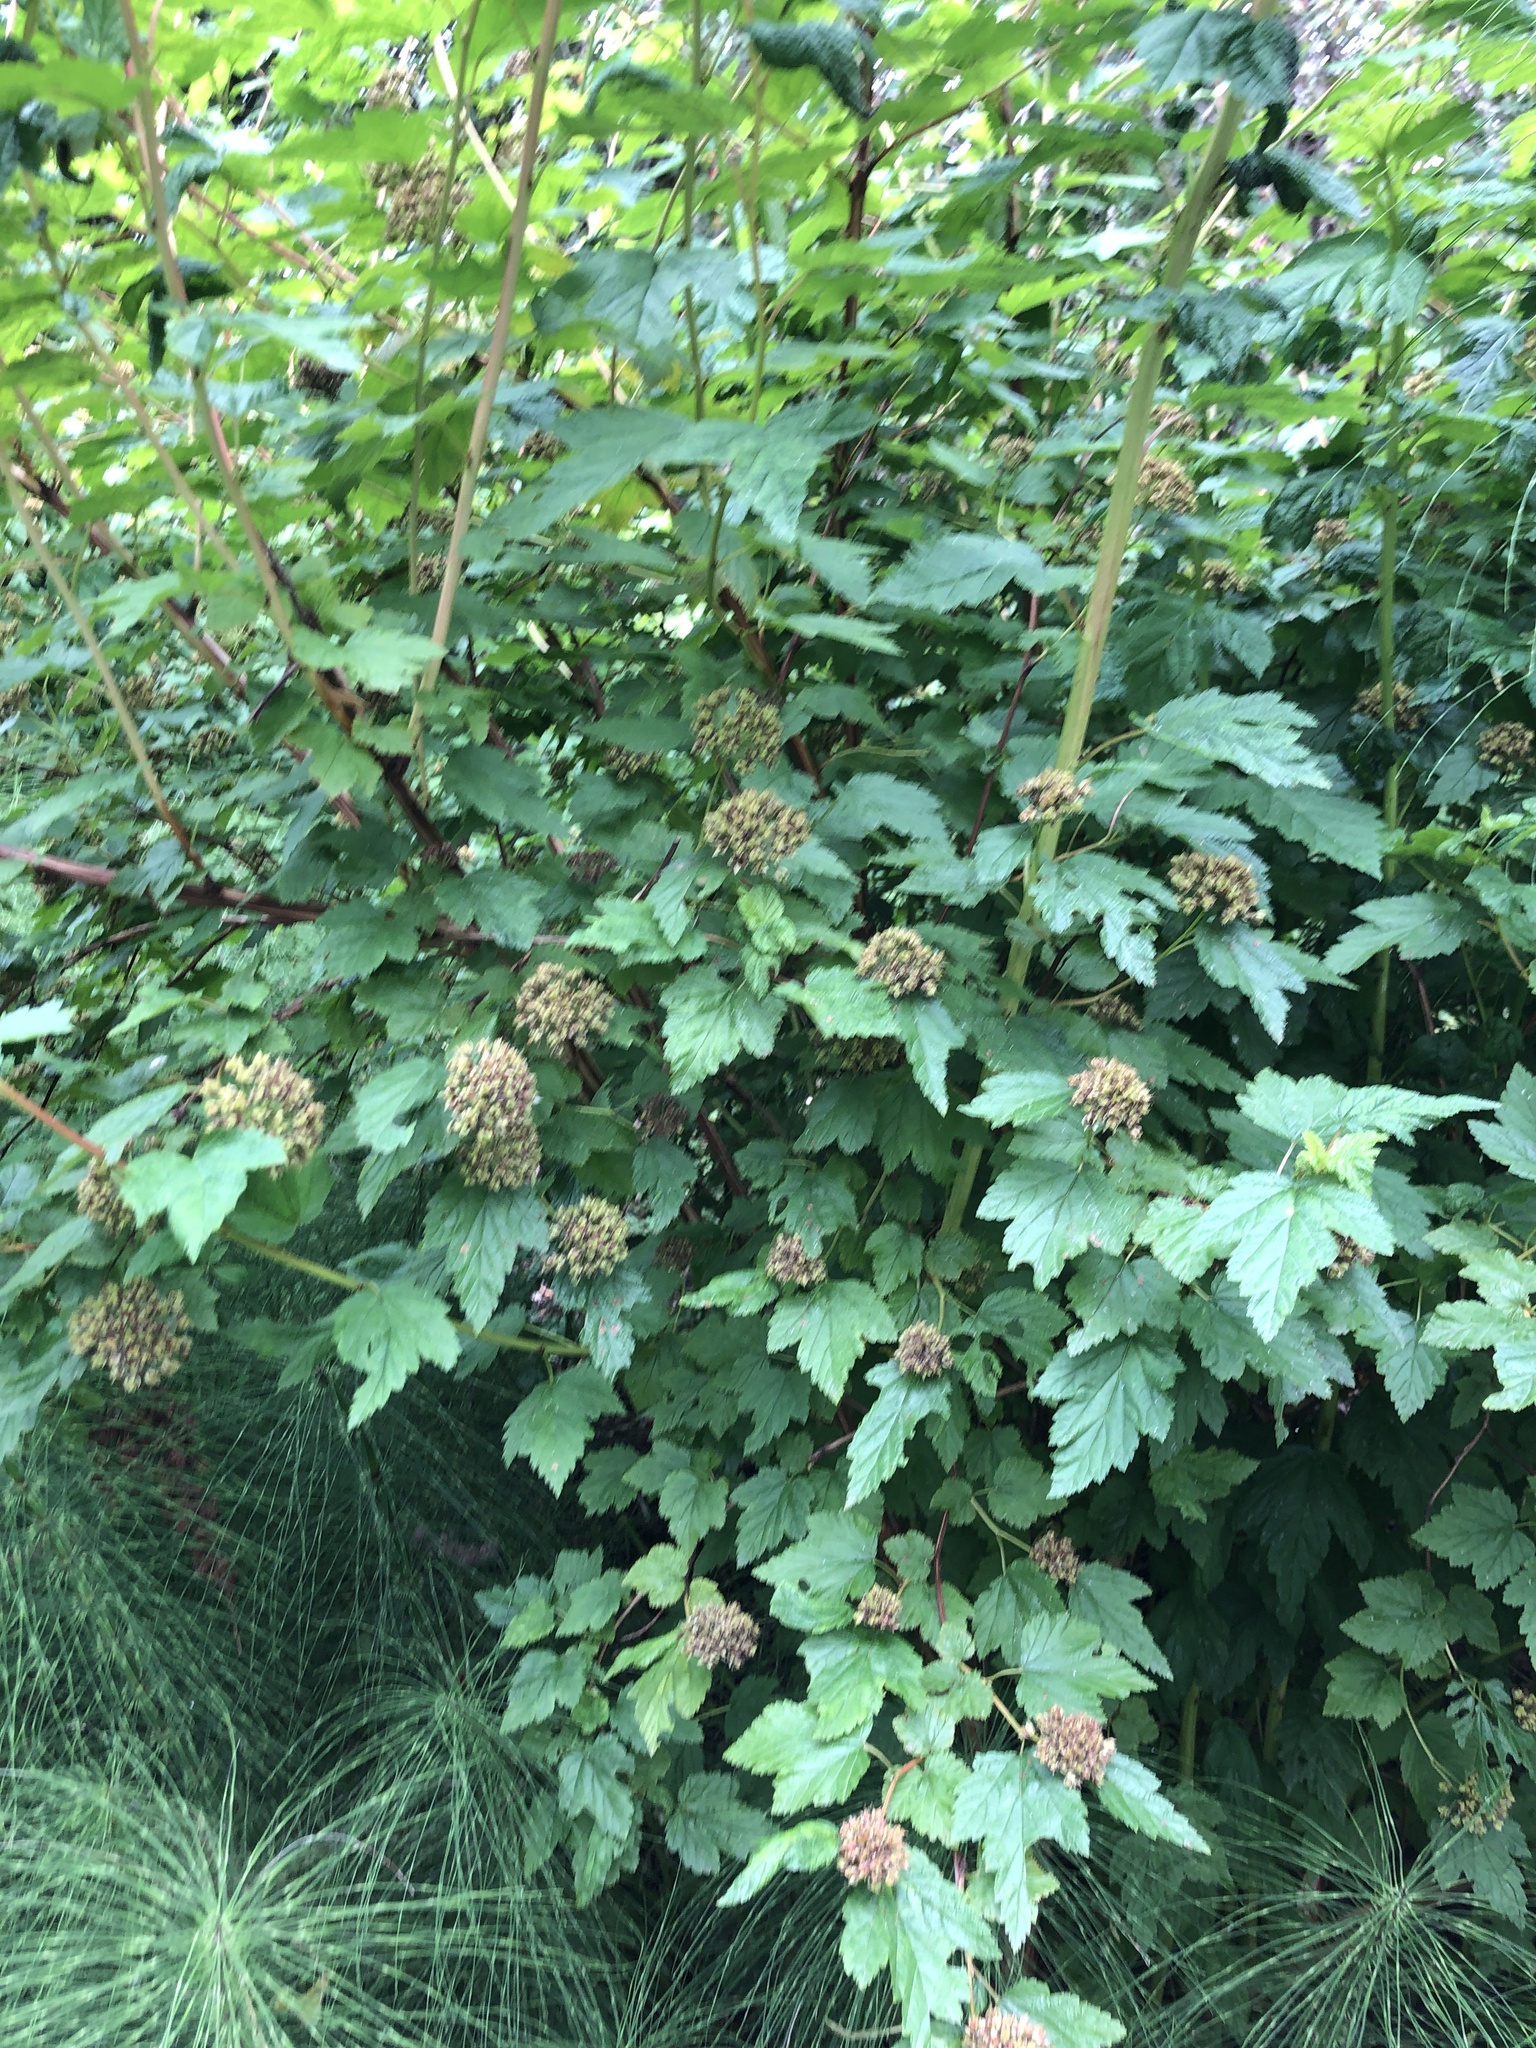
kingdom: Plantae
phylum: Tracheophyta
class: Magnoliopsida
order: Rosales
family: Rosaceae
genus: Physocarpus
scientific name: Physocarpus capitatus
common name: Pacific ninebark
